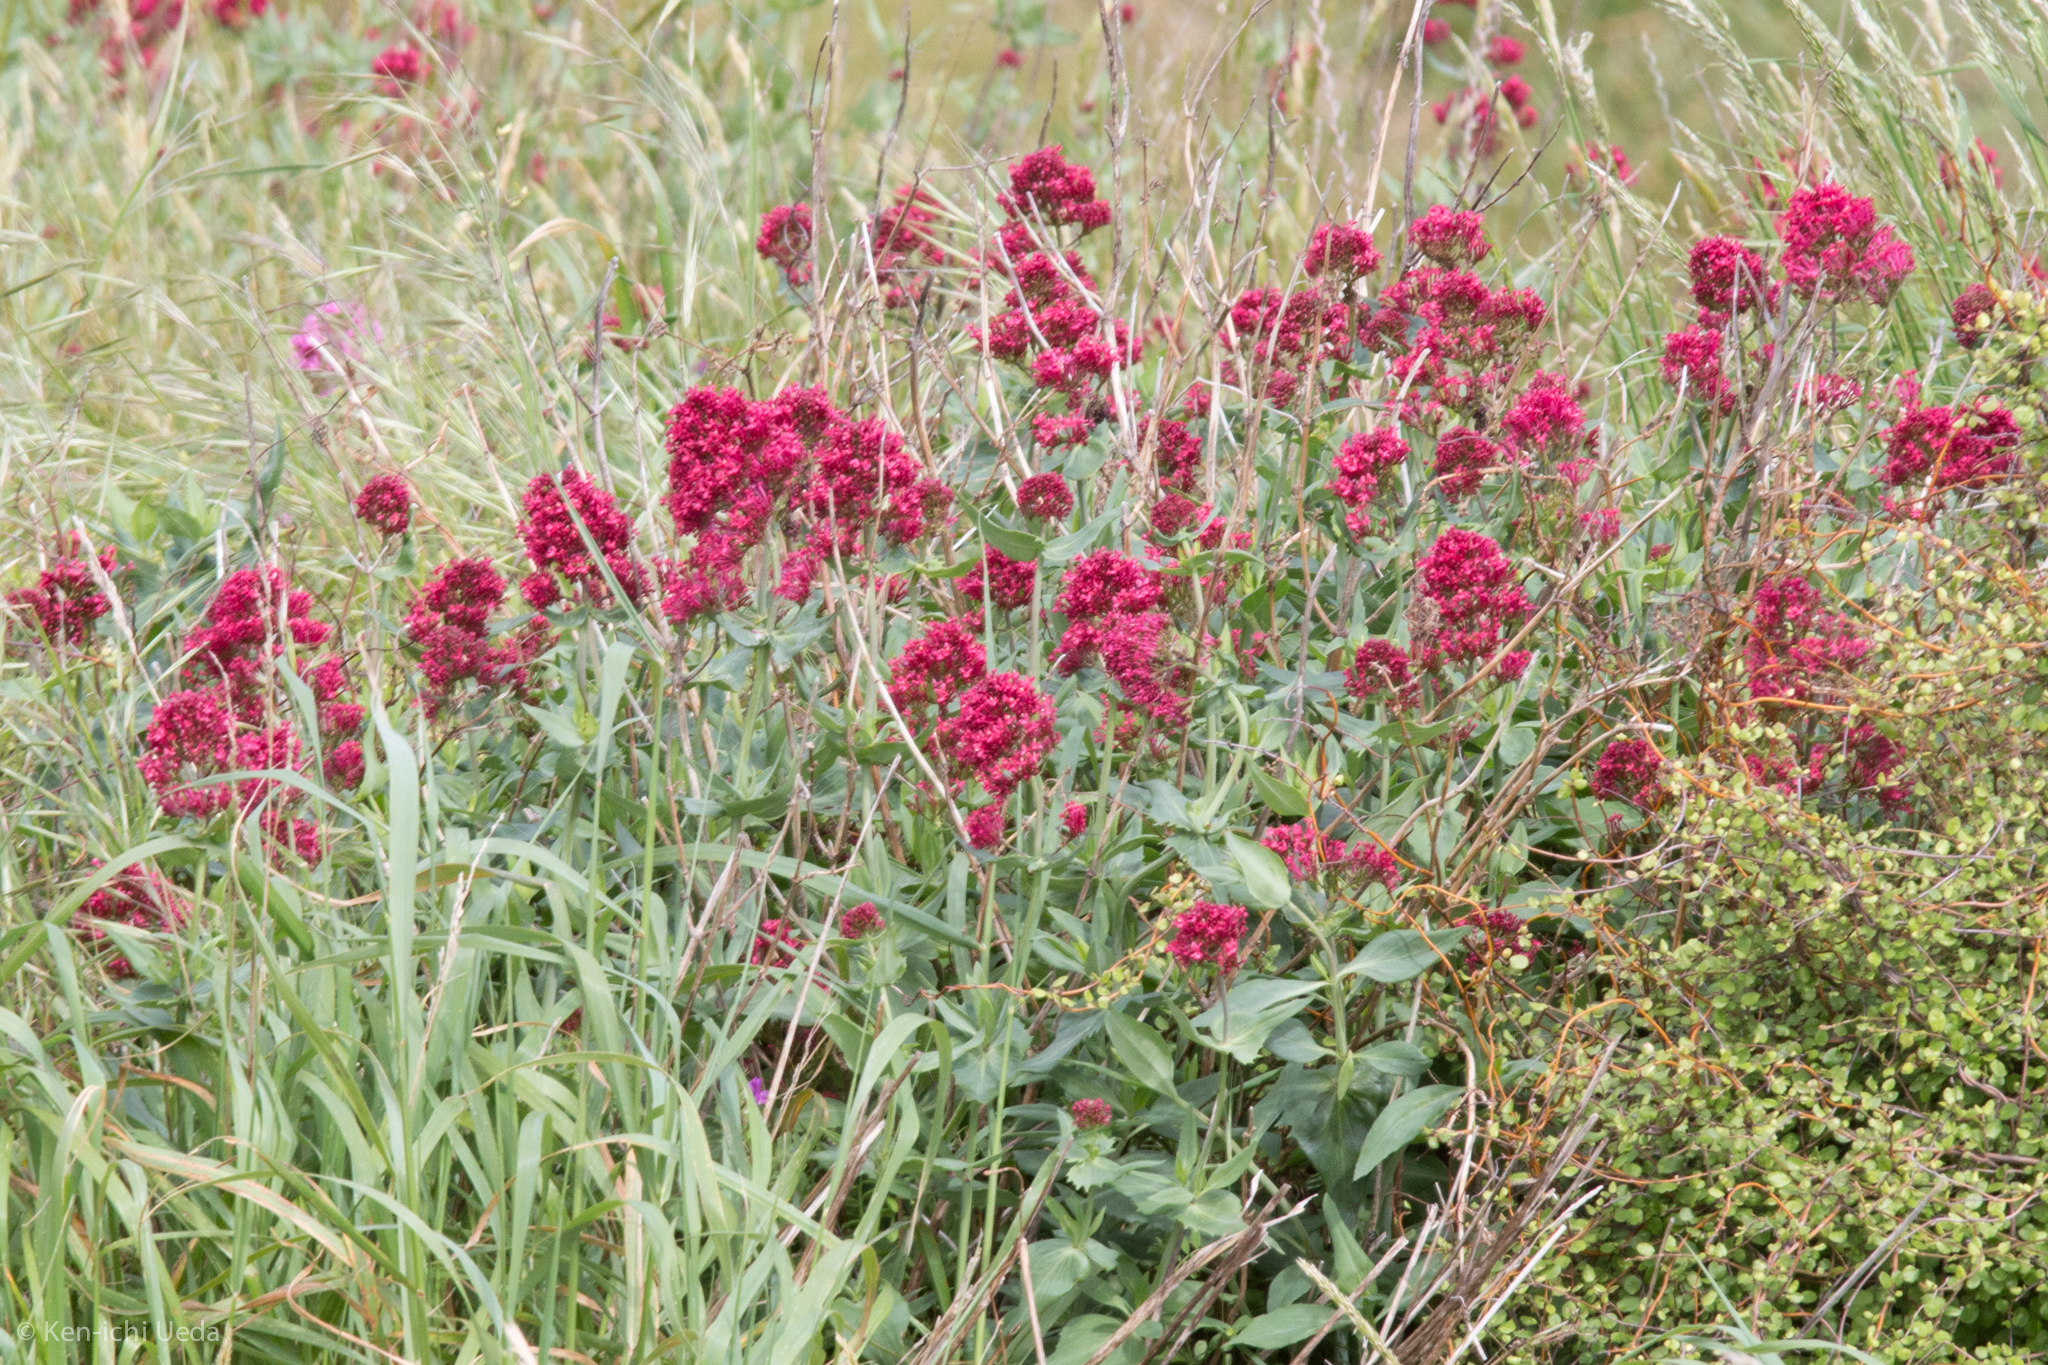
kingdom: Plantae
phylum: Tracheophyta
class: Magnoliopsida
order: Dipsacales
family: Caprifoliaceae
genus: Centranthus
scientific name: Centranthus ruber
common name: Red valerian
